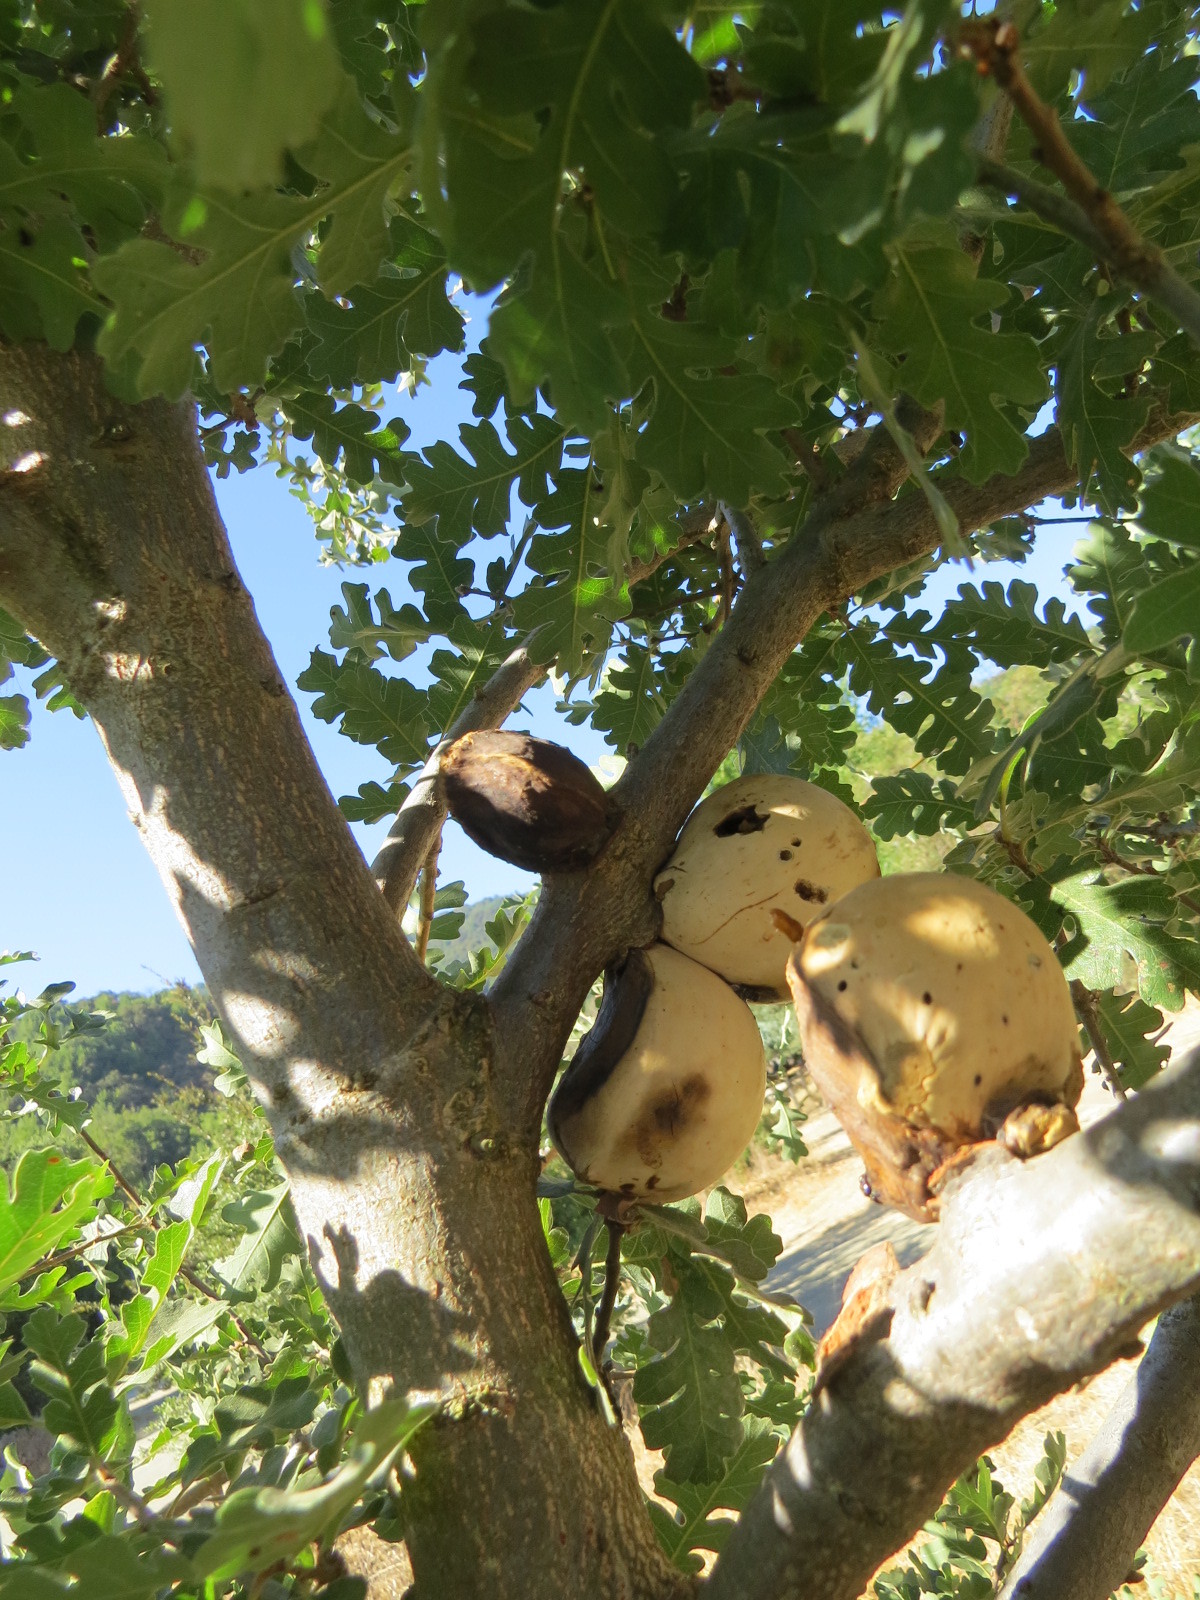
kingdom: Animalia
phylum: Arthropoda
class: Insecta
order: Hymenoptera
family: Cynipidae
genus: Andricus
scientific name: Andricus quercuscalifornicus
